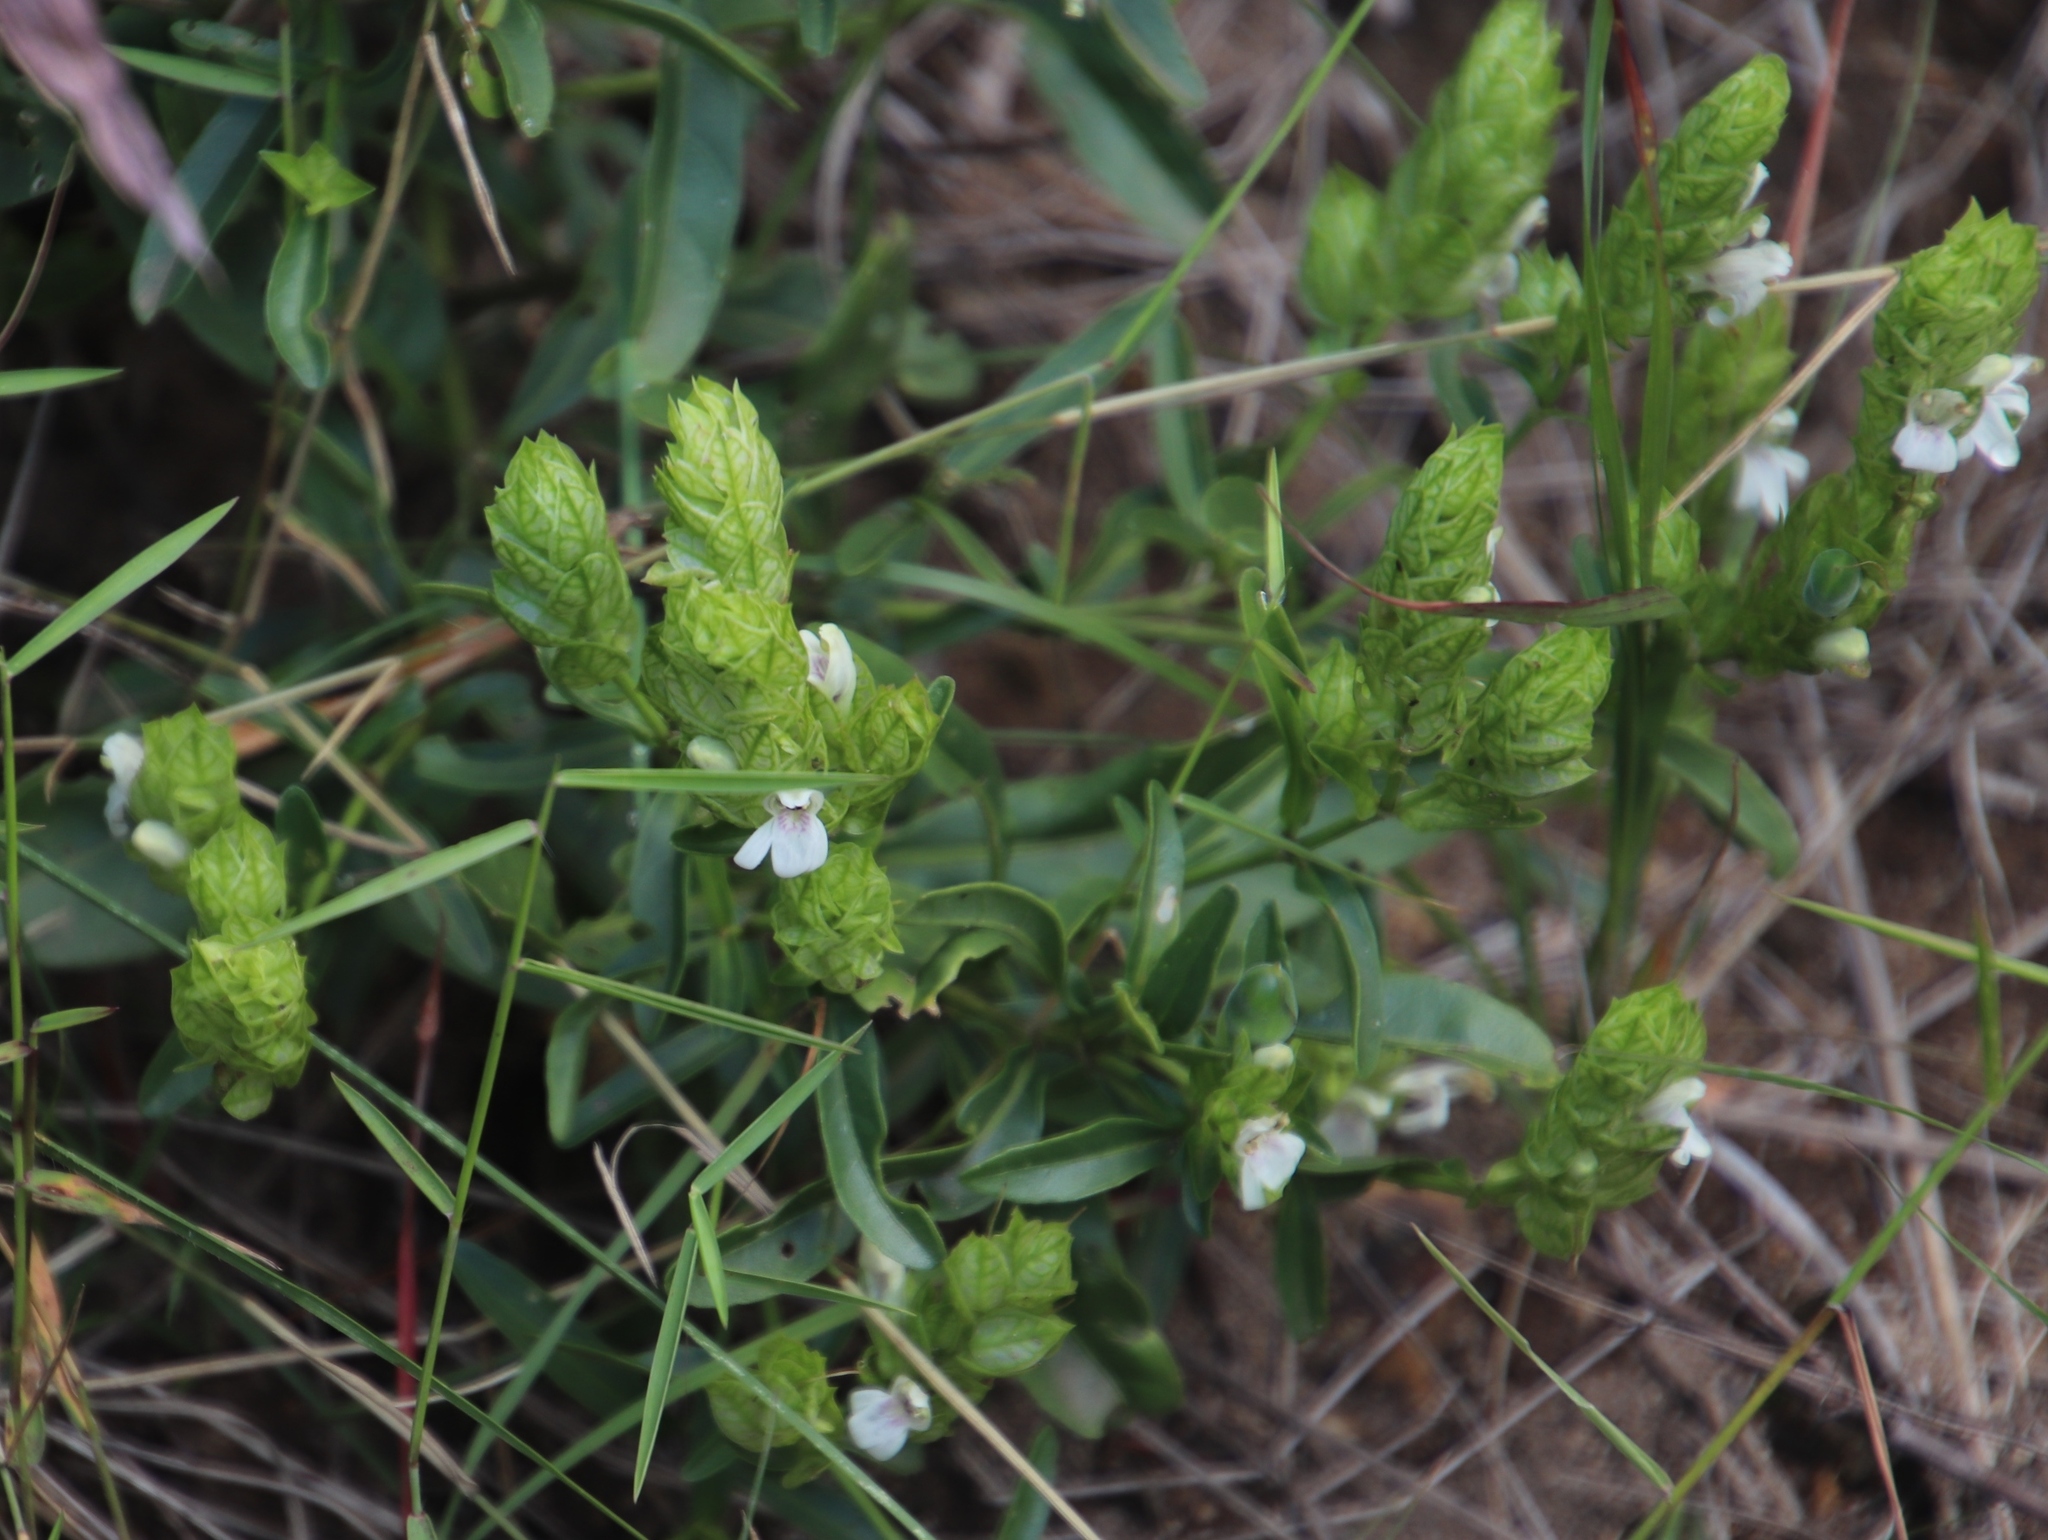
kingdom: Plantae
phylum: Tracheophyta
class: Magnoliopsida
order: Lamiales
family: Acanthaceae
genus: Justicia
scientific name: Justicia betonica
